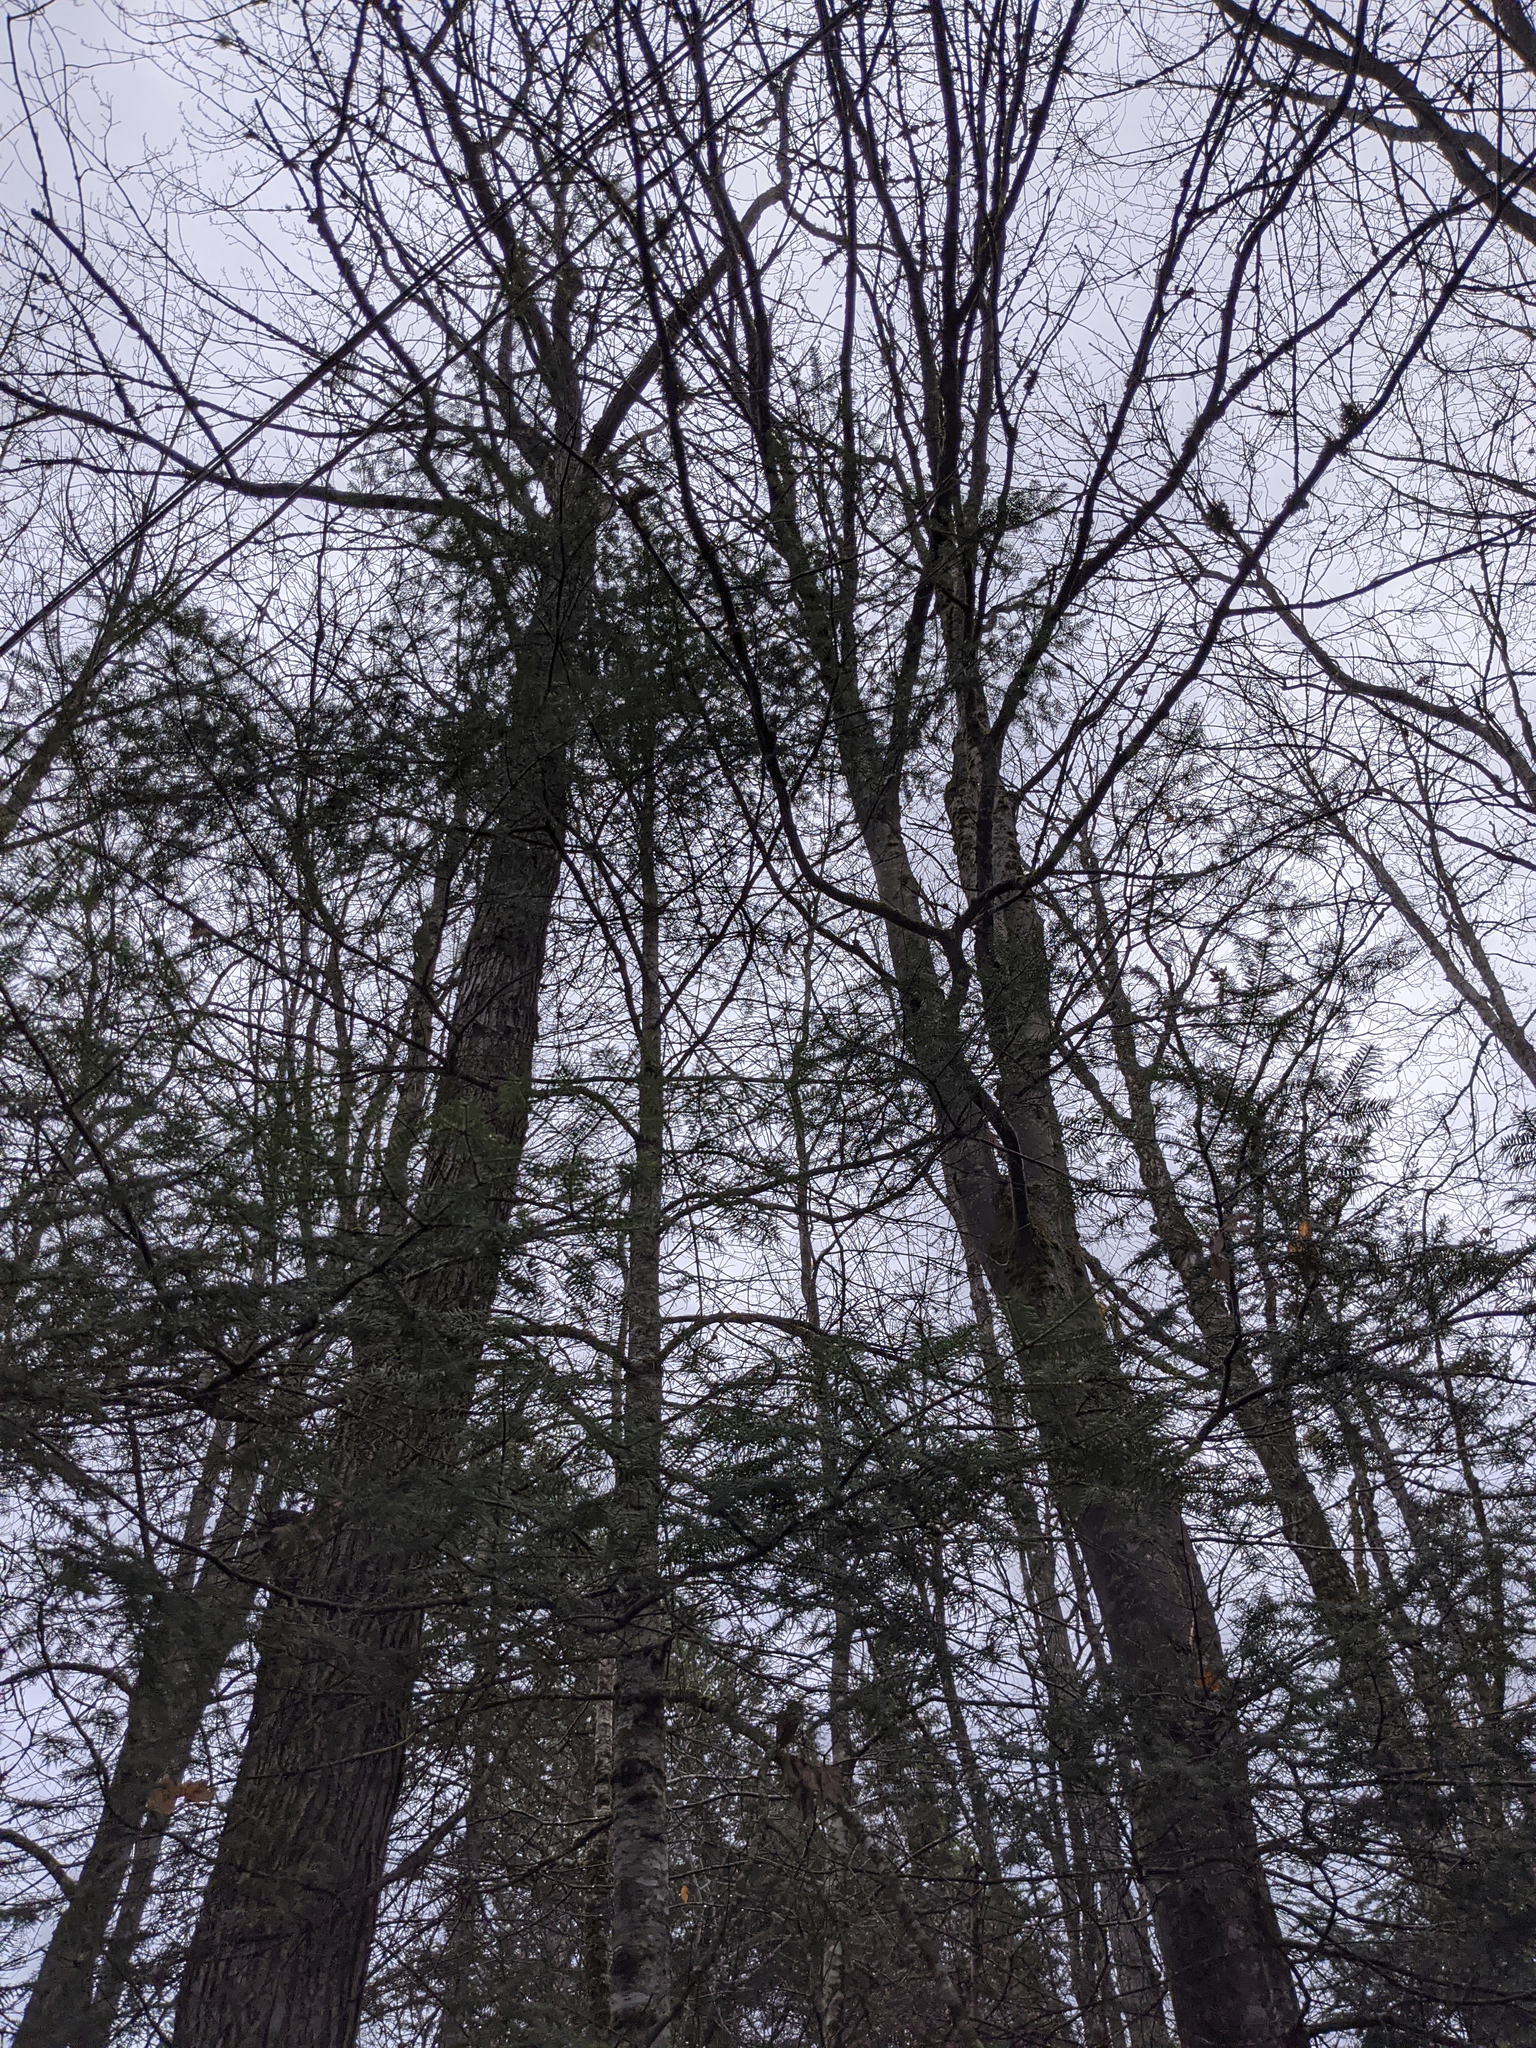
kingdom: Plantae
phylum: Tracheophyta
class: Pinopsida
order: Pinales
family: Pinaceae
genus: Abies
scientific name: Abies balsamea
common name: Balsam fir
